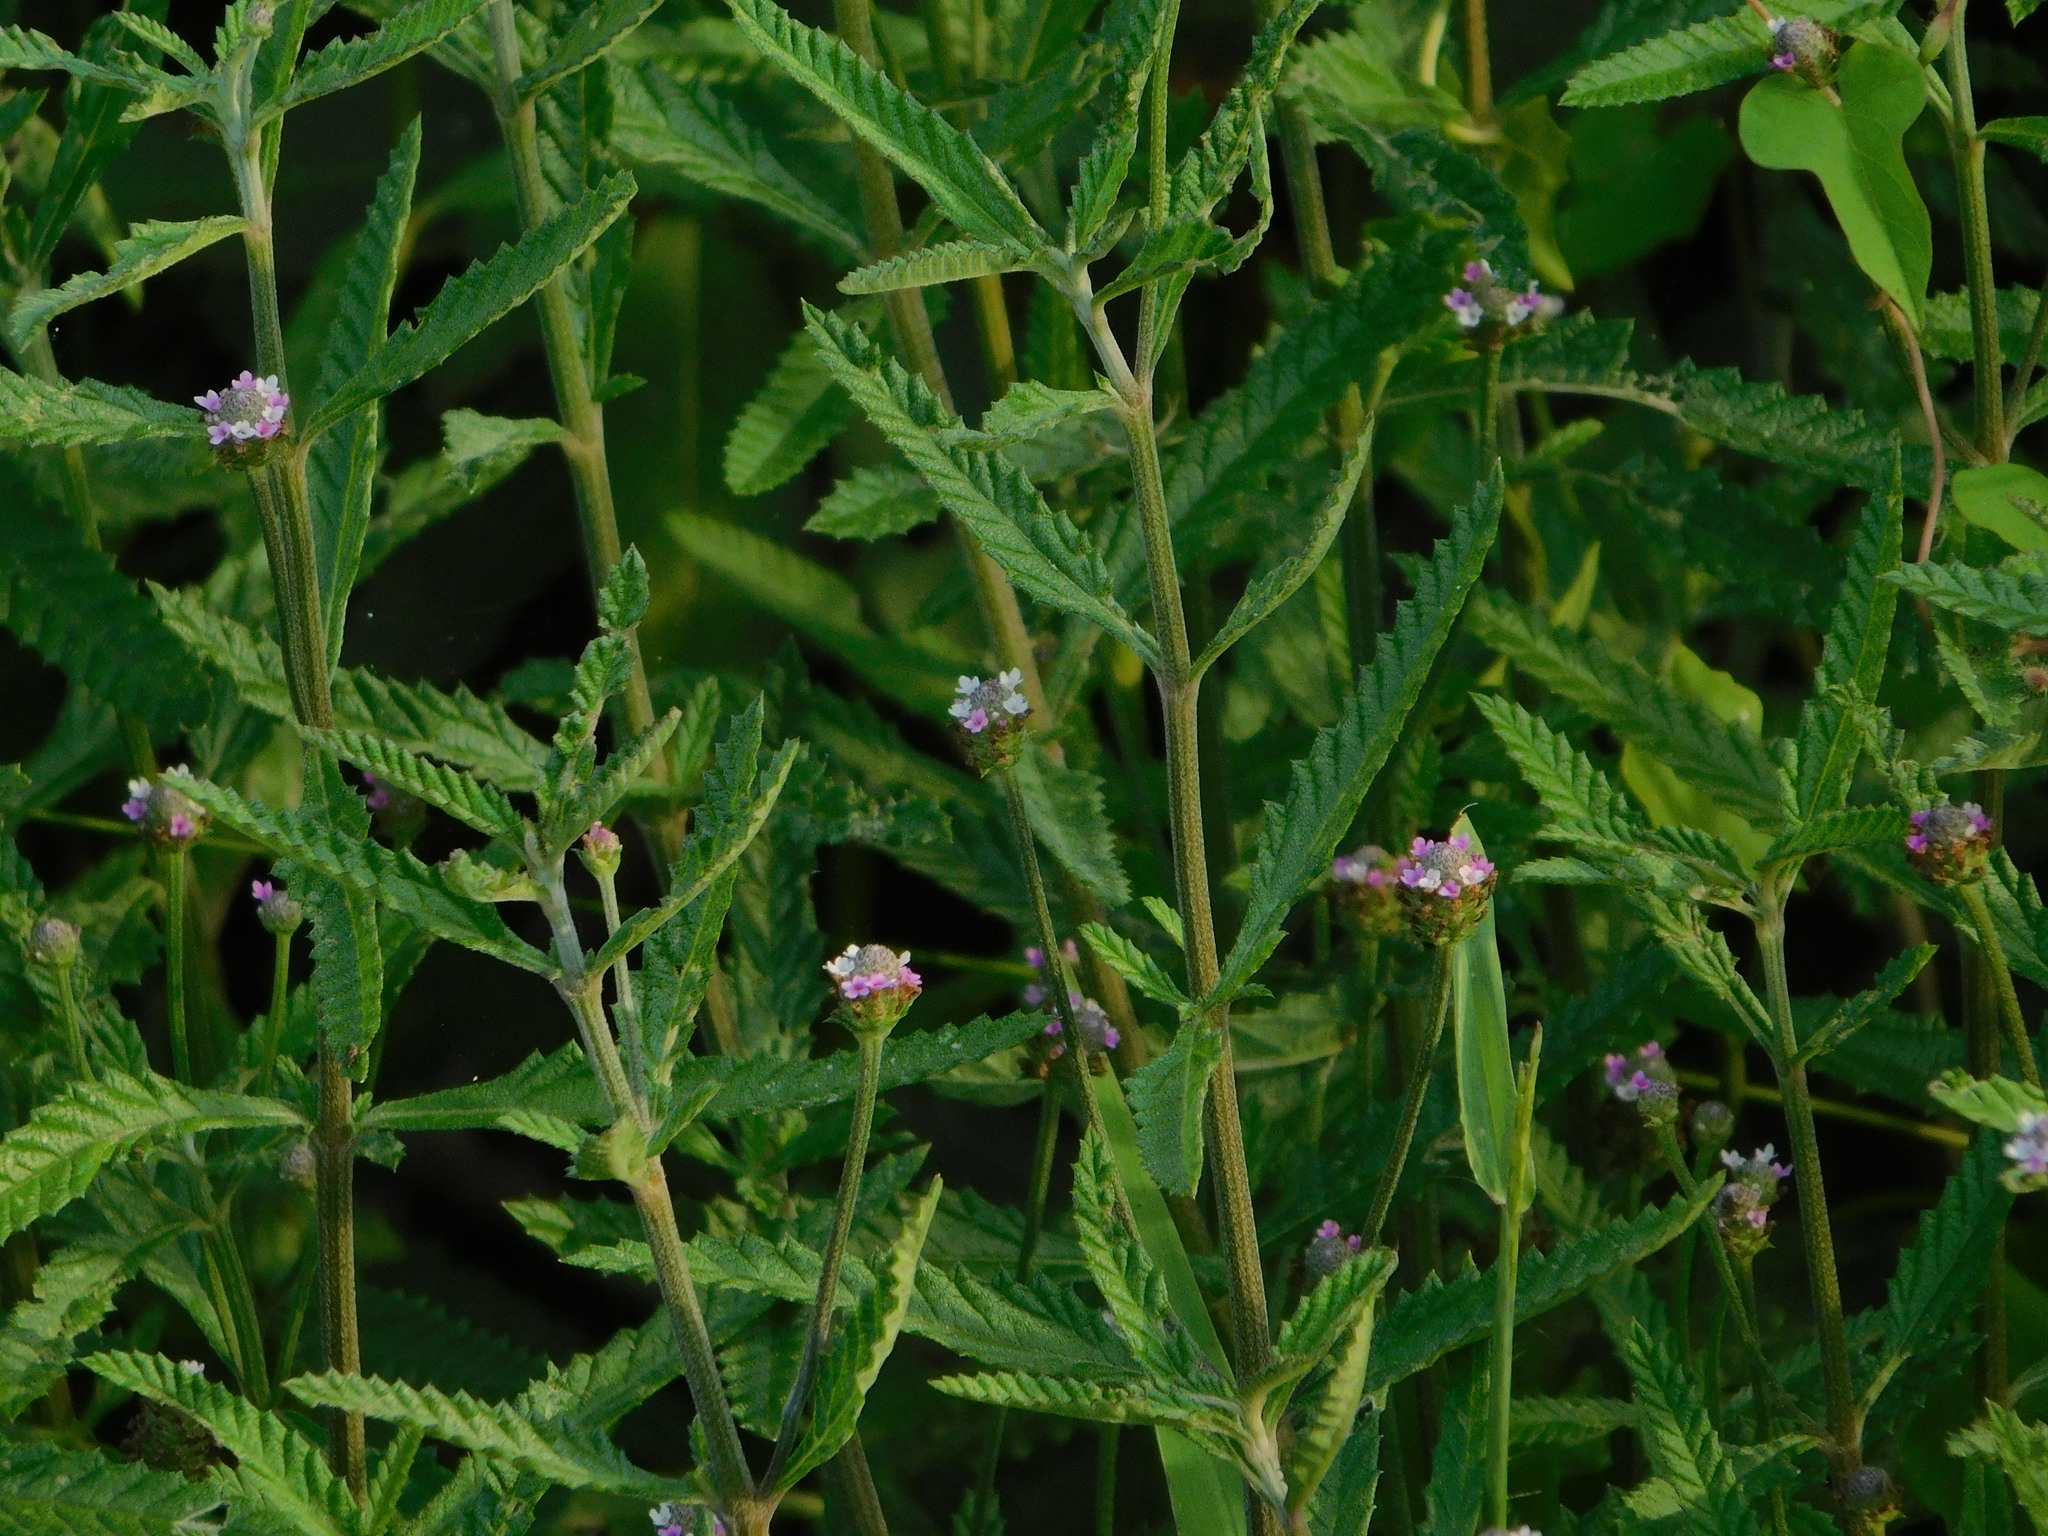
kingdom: Plantae
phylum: Tracheophyta
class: Magnoliopsida
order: Lamiales
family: Verbenaceae
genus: Lippia
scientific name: Lippia stoechadifolia
